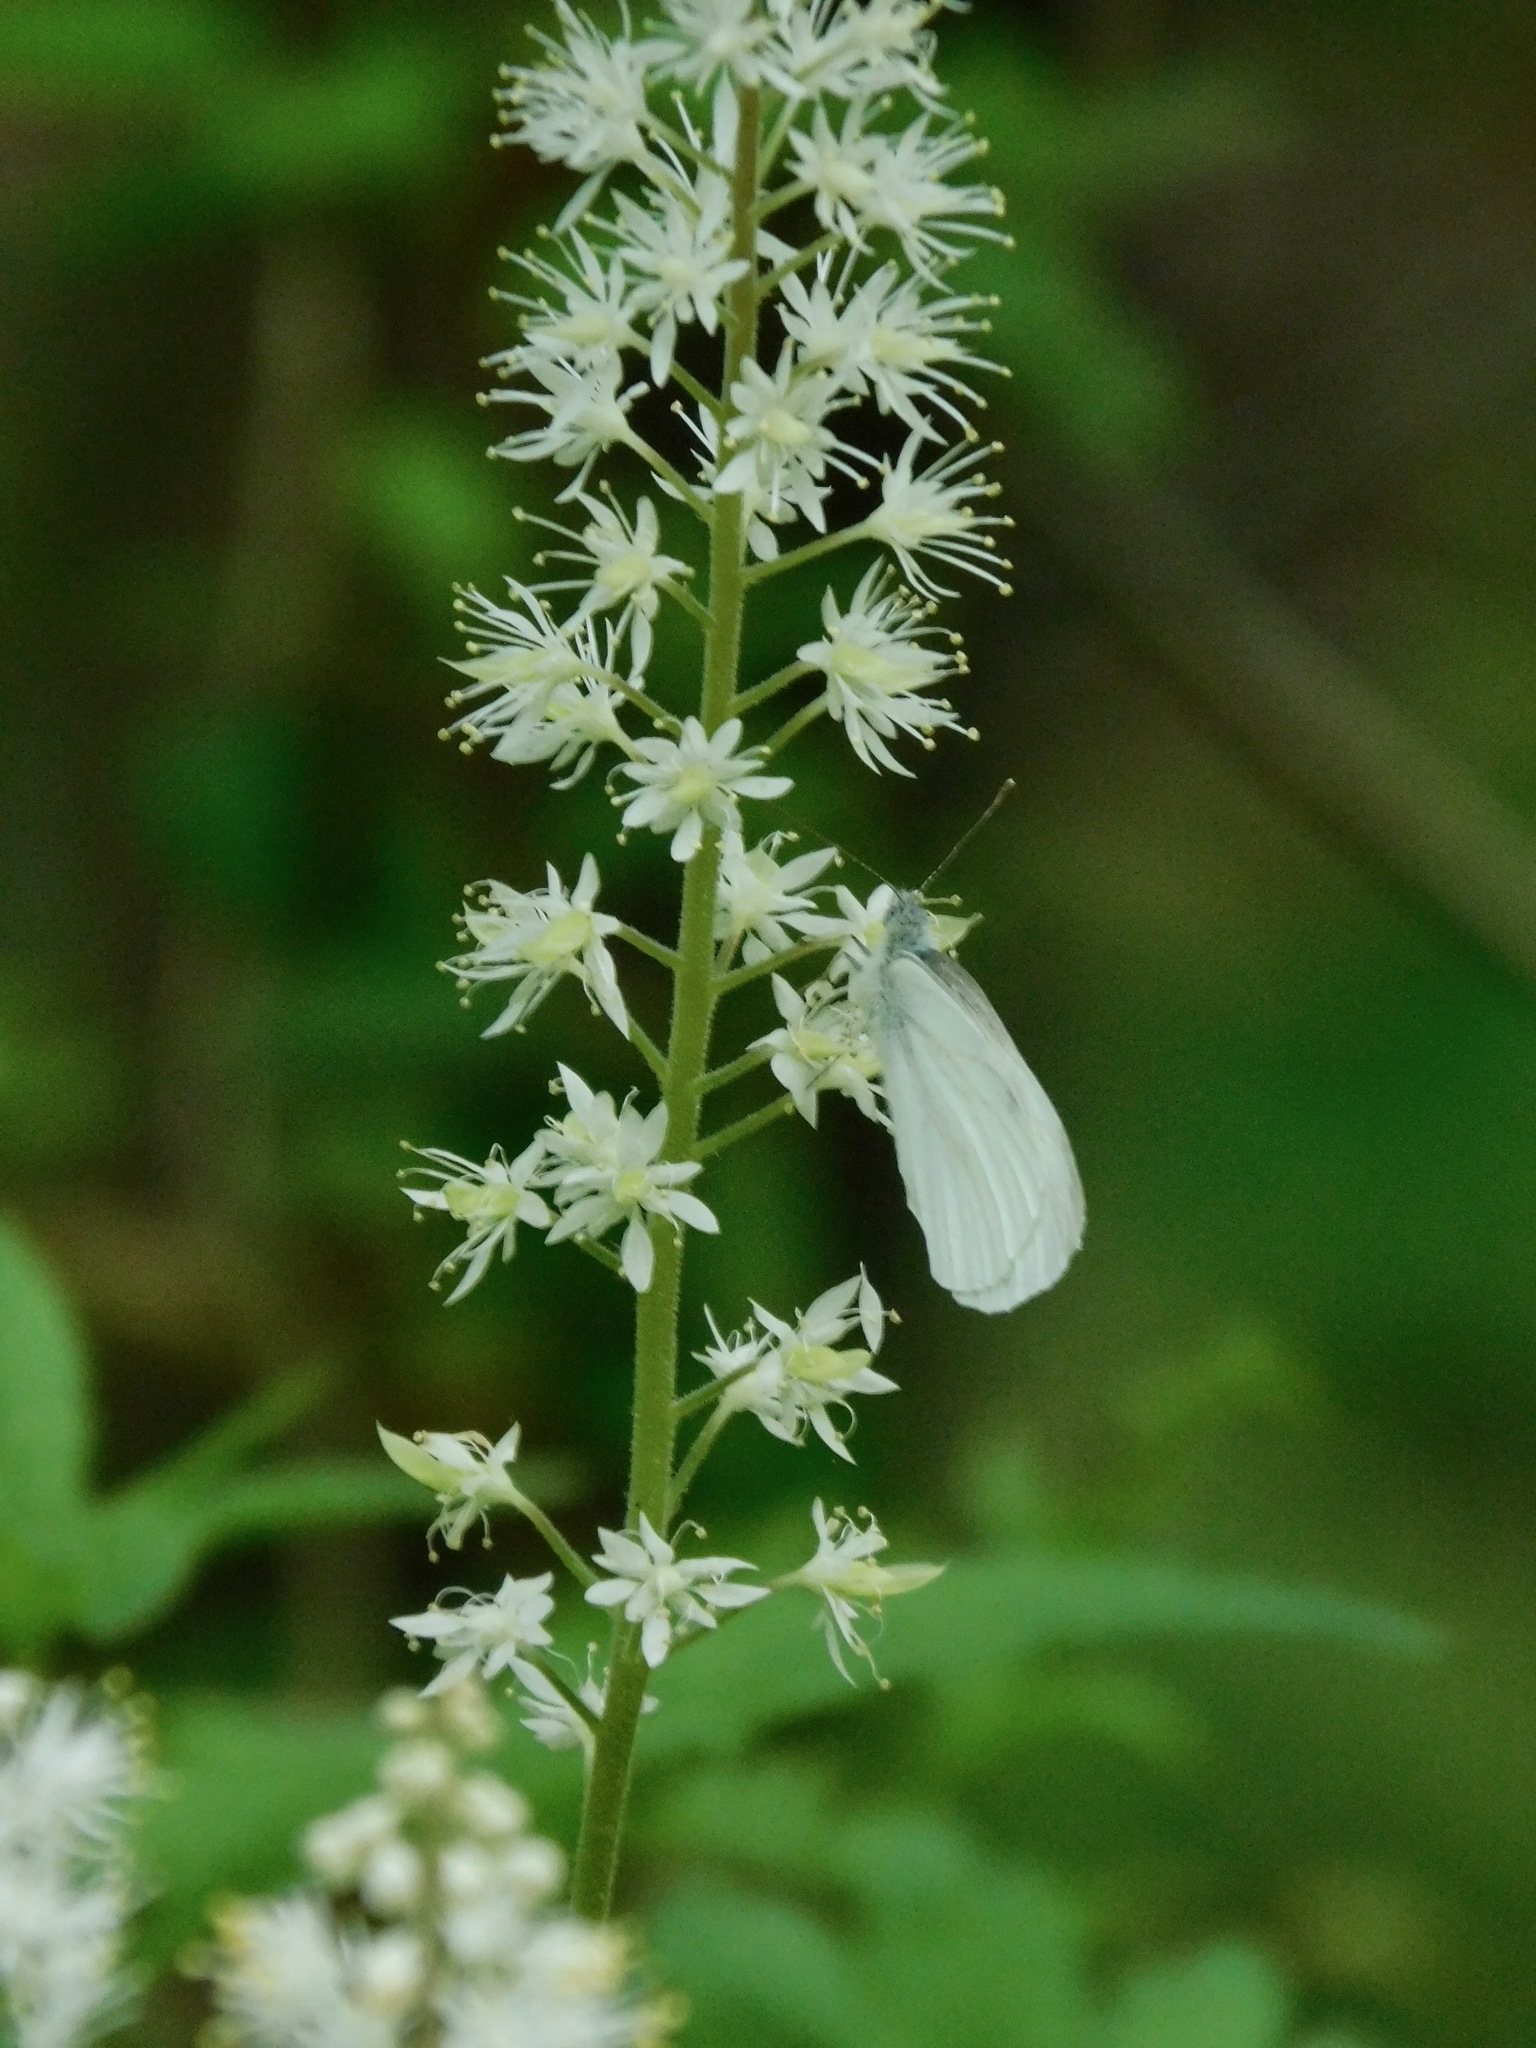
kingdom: Plantae
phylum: Tracheophyta
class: Magnoliopsida
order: Saxifragales
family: Saxifragaceae
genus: Tiarella
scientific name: Tiarella austrina
